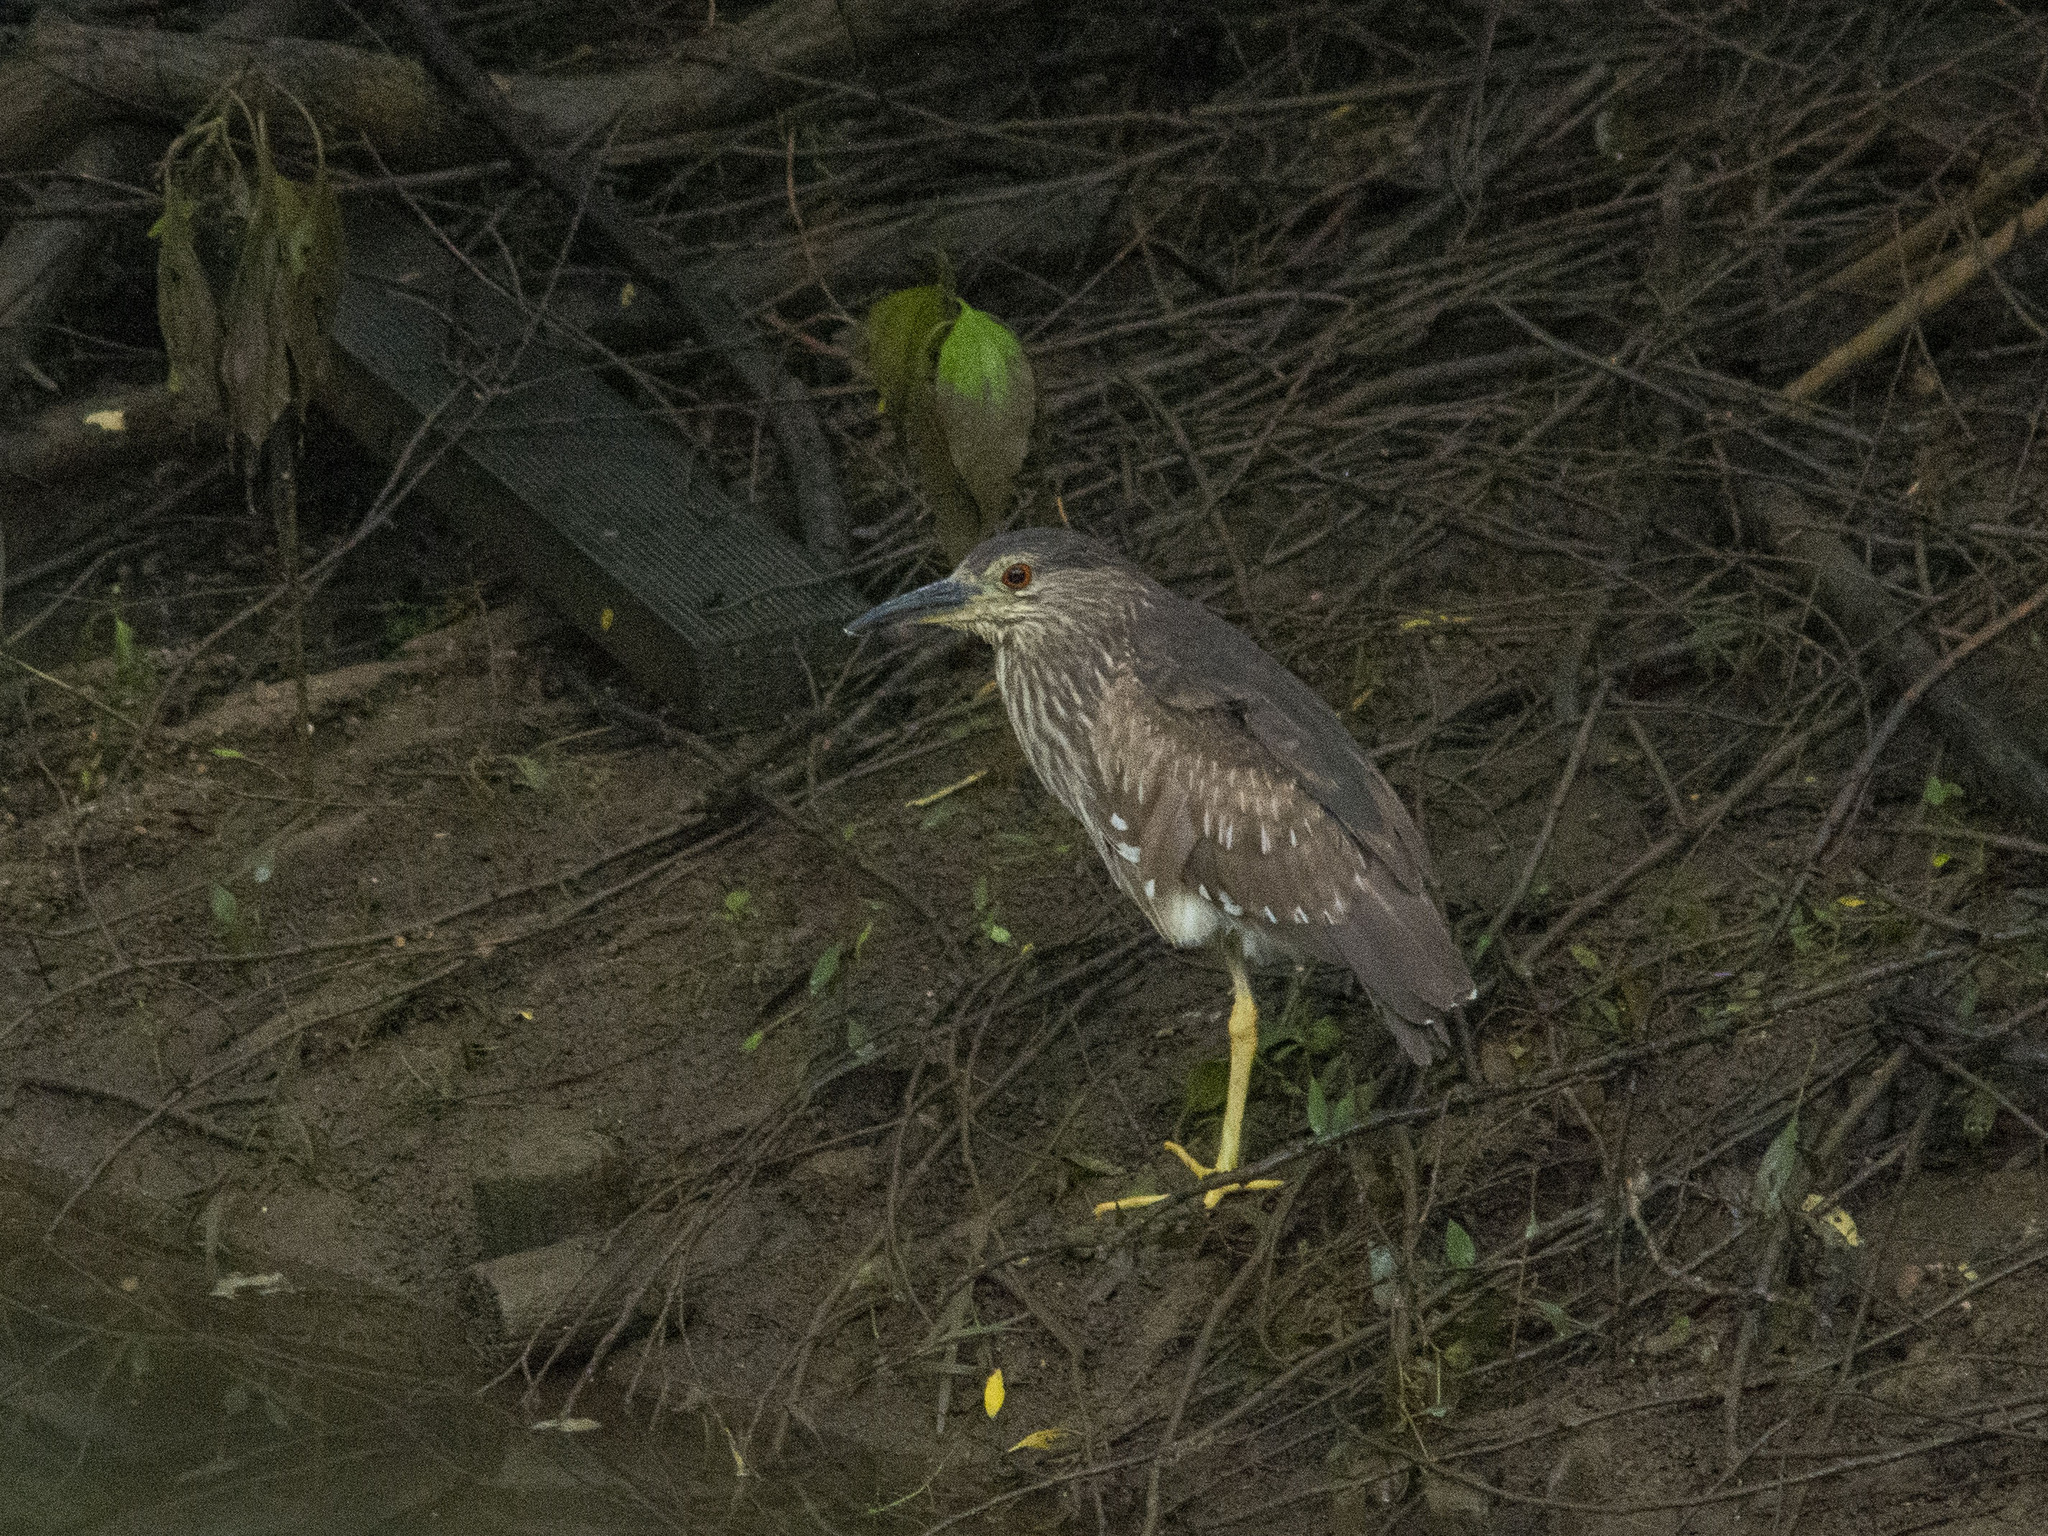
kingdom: Animalia
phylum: Chordata
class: Aves
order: Pelecaniformes
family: Ardeidae
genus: Nycticorax
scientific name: Nycticorax nycticorax
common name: Black-crowned night heron
